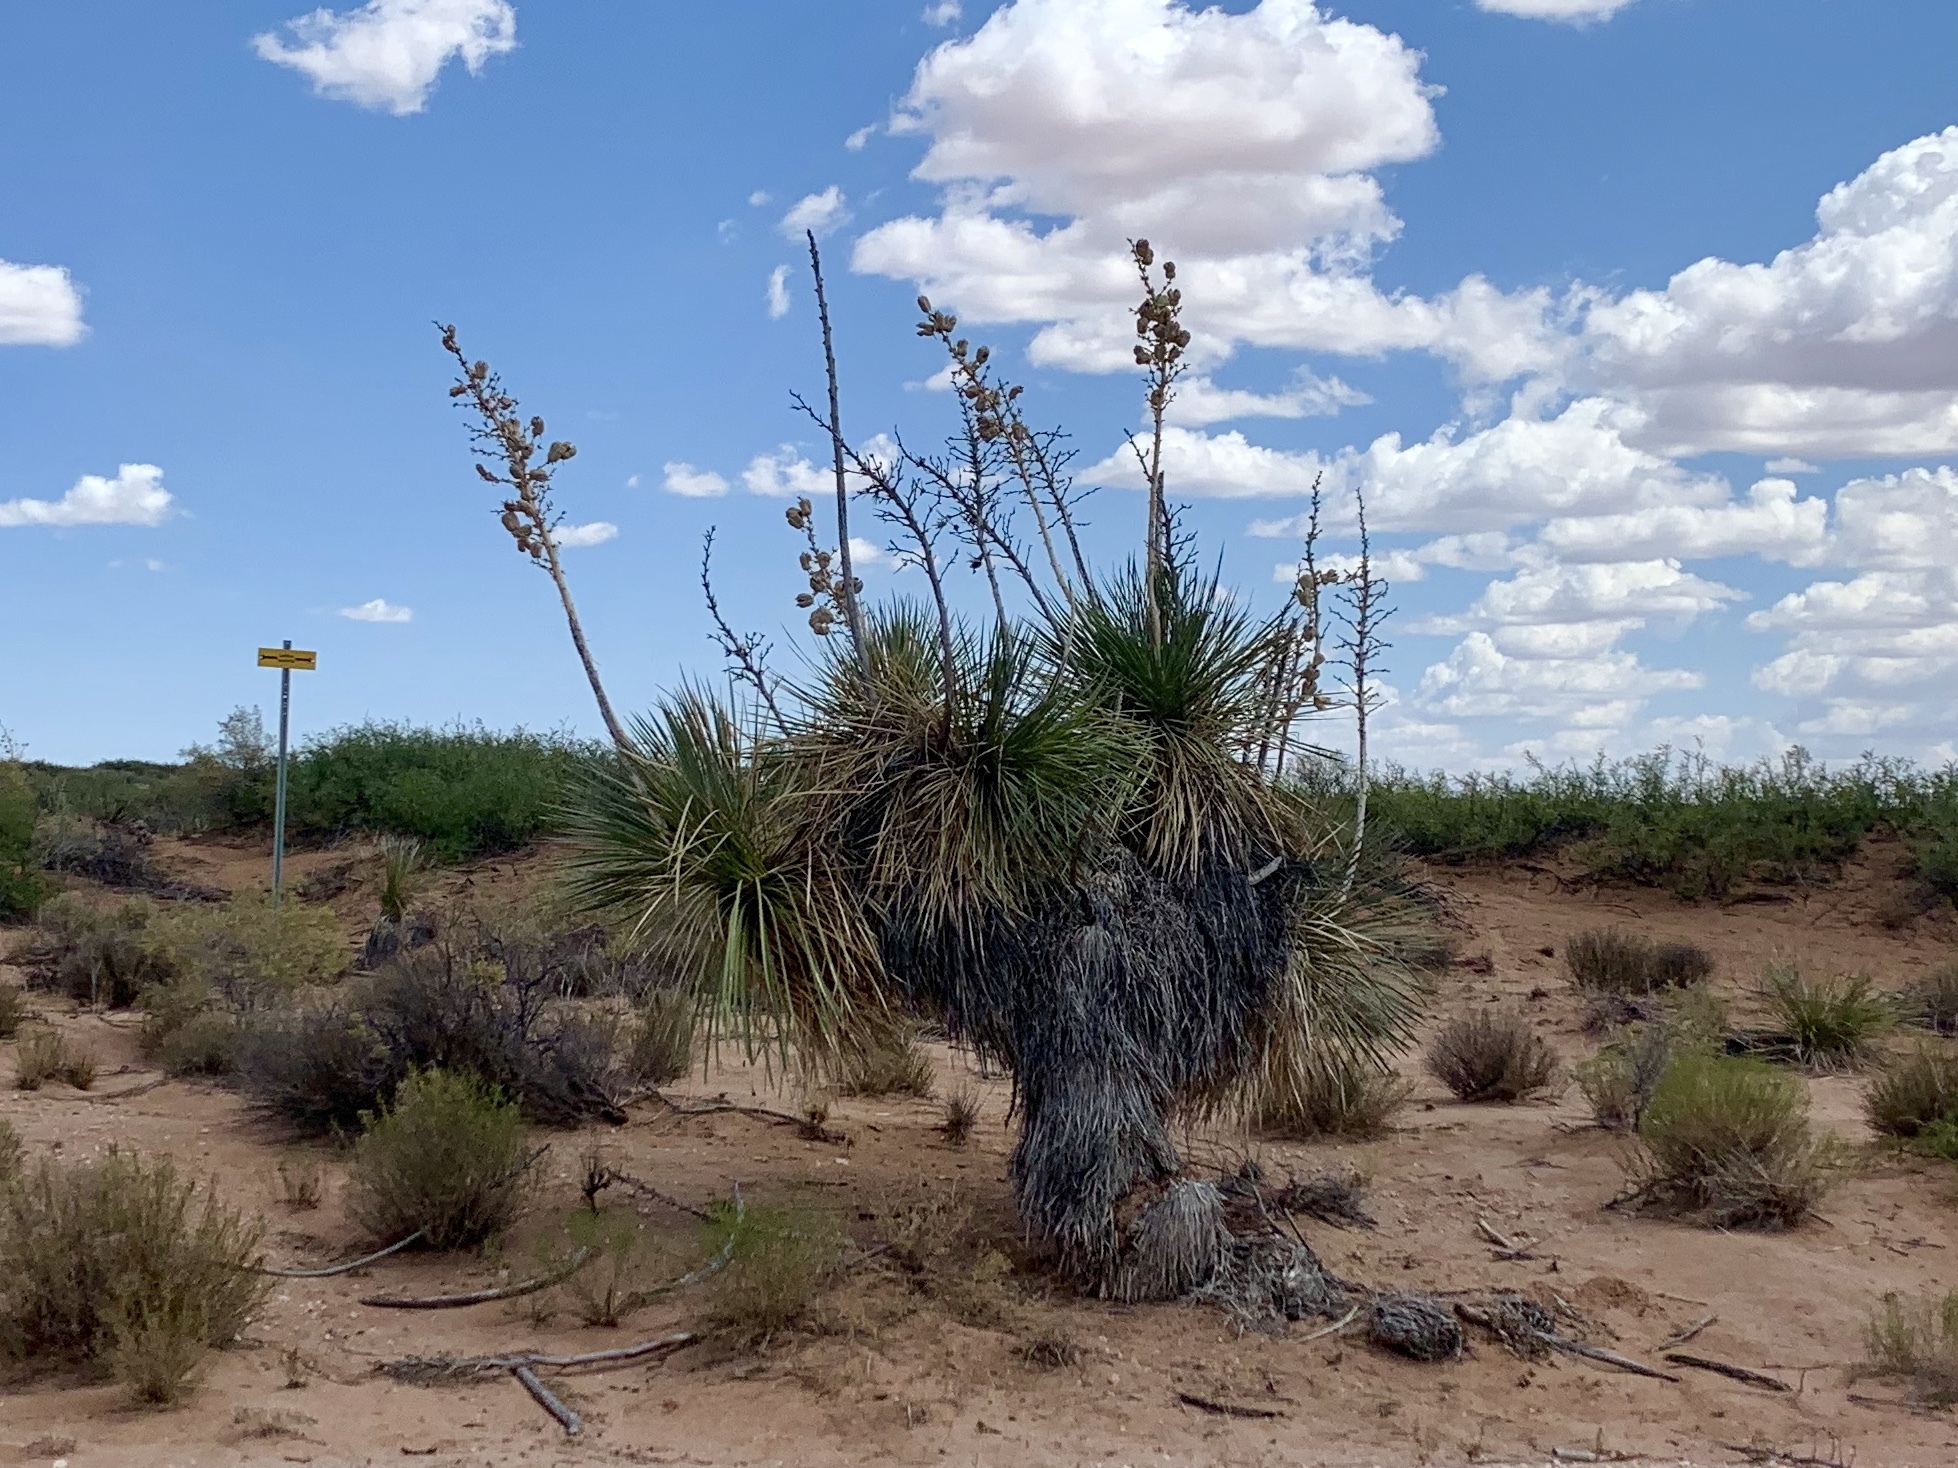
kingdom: Plantae
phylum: Tracheophyta
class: Liliopsida
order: Asparagales
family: Asparagaceae
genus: Yucca
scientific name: Yucca elata
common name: Palmella
